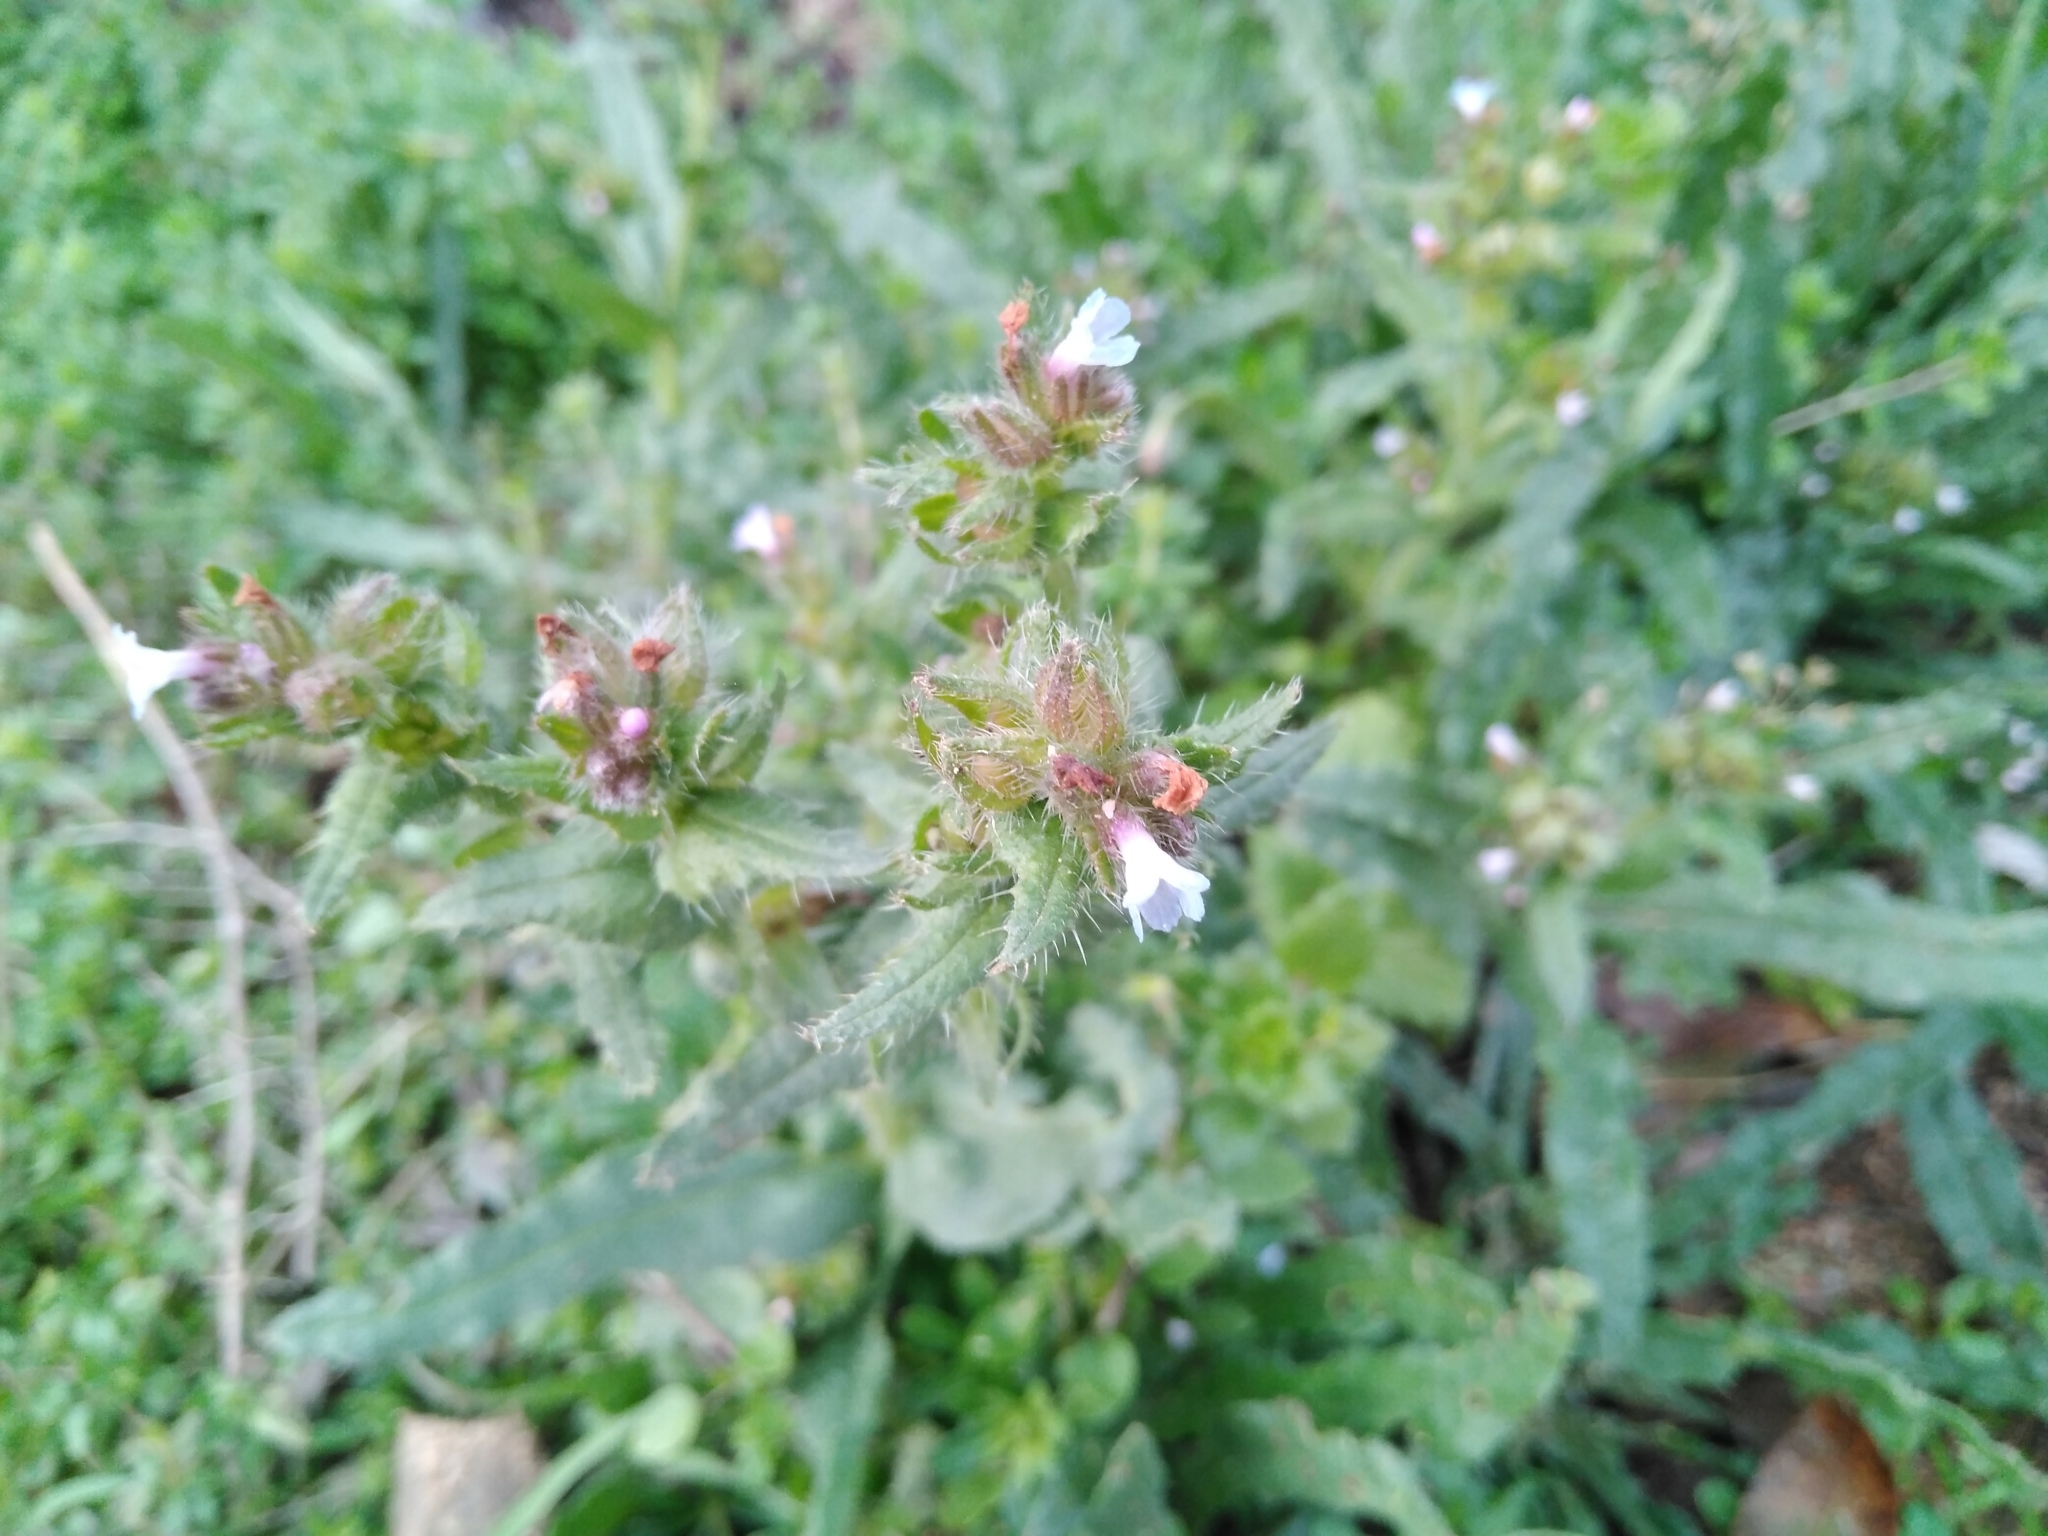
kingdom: Plantae
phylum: Tracheophyta
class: Magnoliopsida
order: Boraginales
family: Boraginaceae
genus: Lycopsis
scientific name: Lycopsis arvensis
